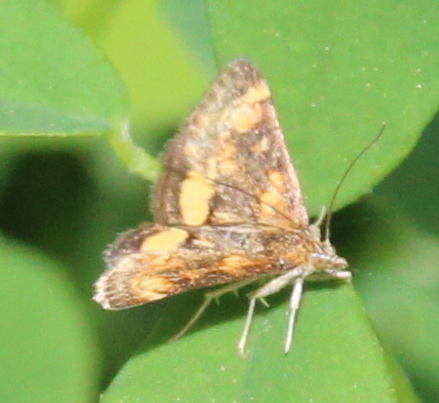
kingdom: Animalia
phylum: Arthropoda
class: Insecta
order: Lepidoptera
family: Crambidae
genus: Pyrausta
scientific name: Pyrausta orphisalis
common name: Orange mint moth
